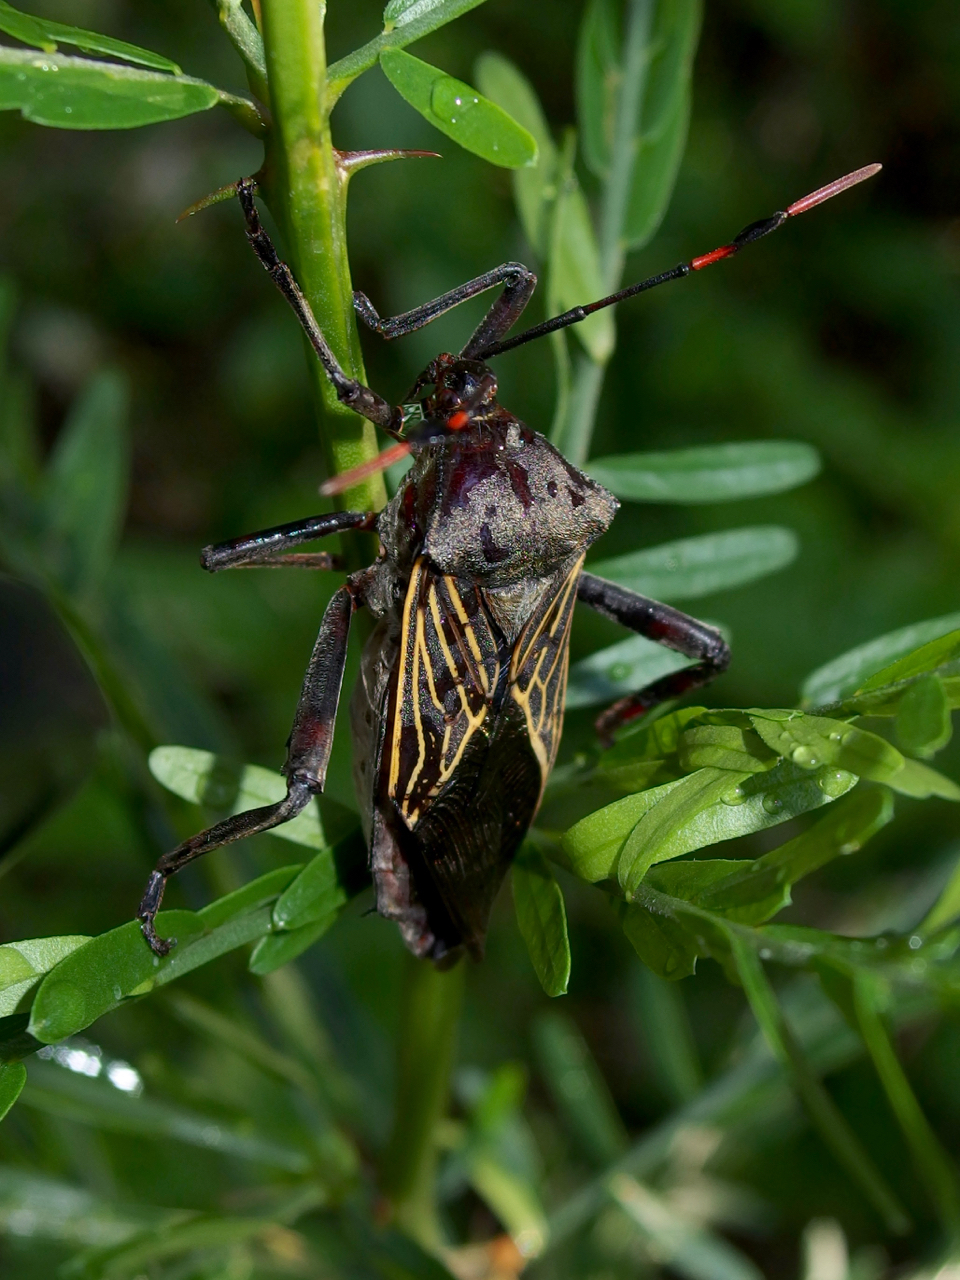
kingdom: Animalia
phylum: Arthropoda
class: Insecta
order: Hemiptera
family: Coreidae
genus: Thasus
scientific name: Thasus neocalifornicus
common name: Giant mesquite bug
